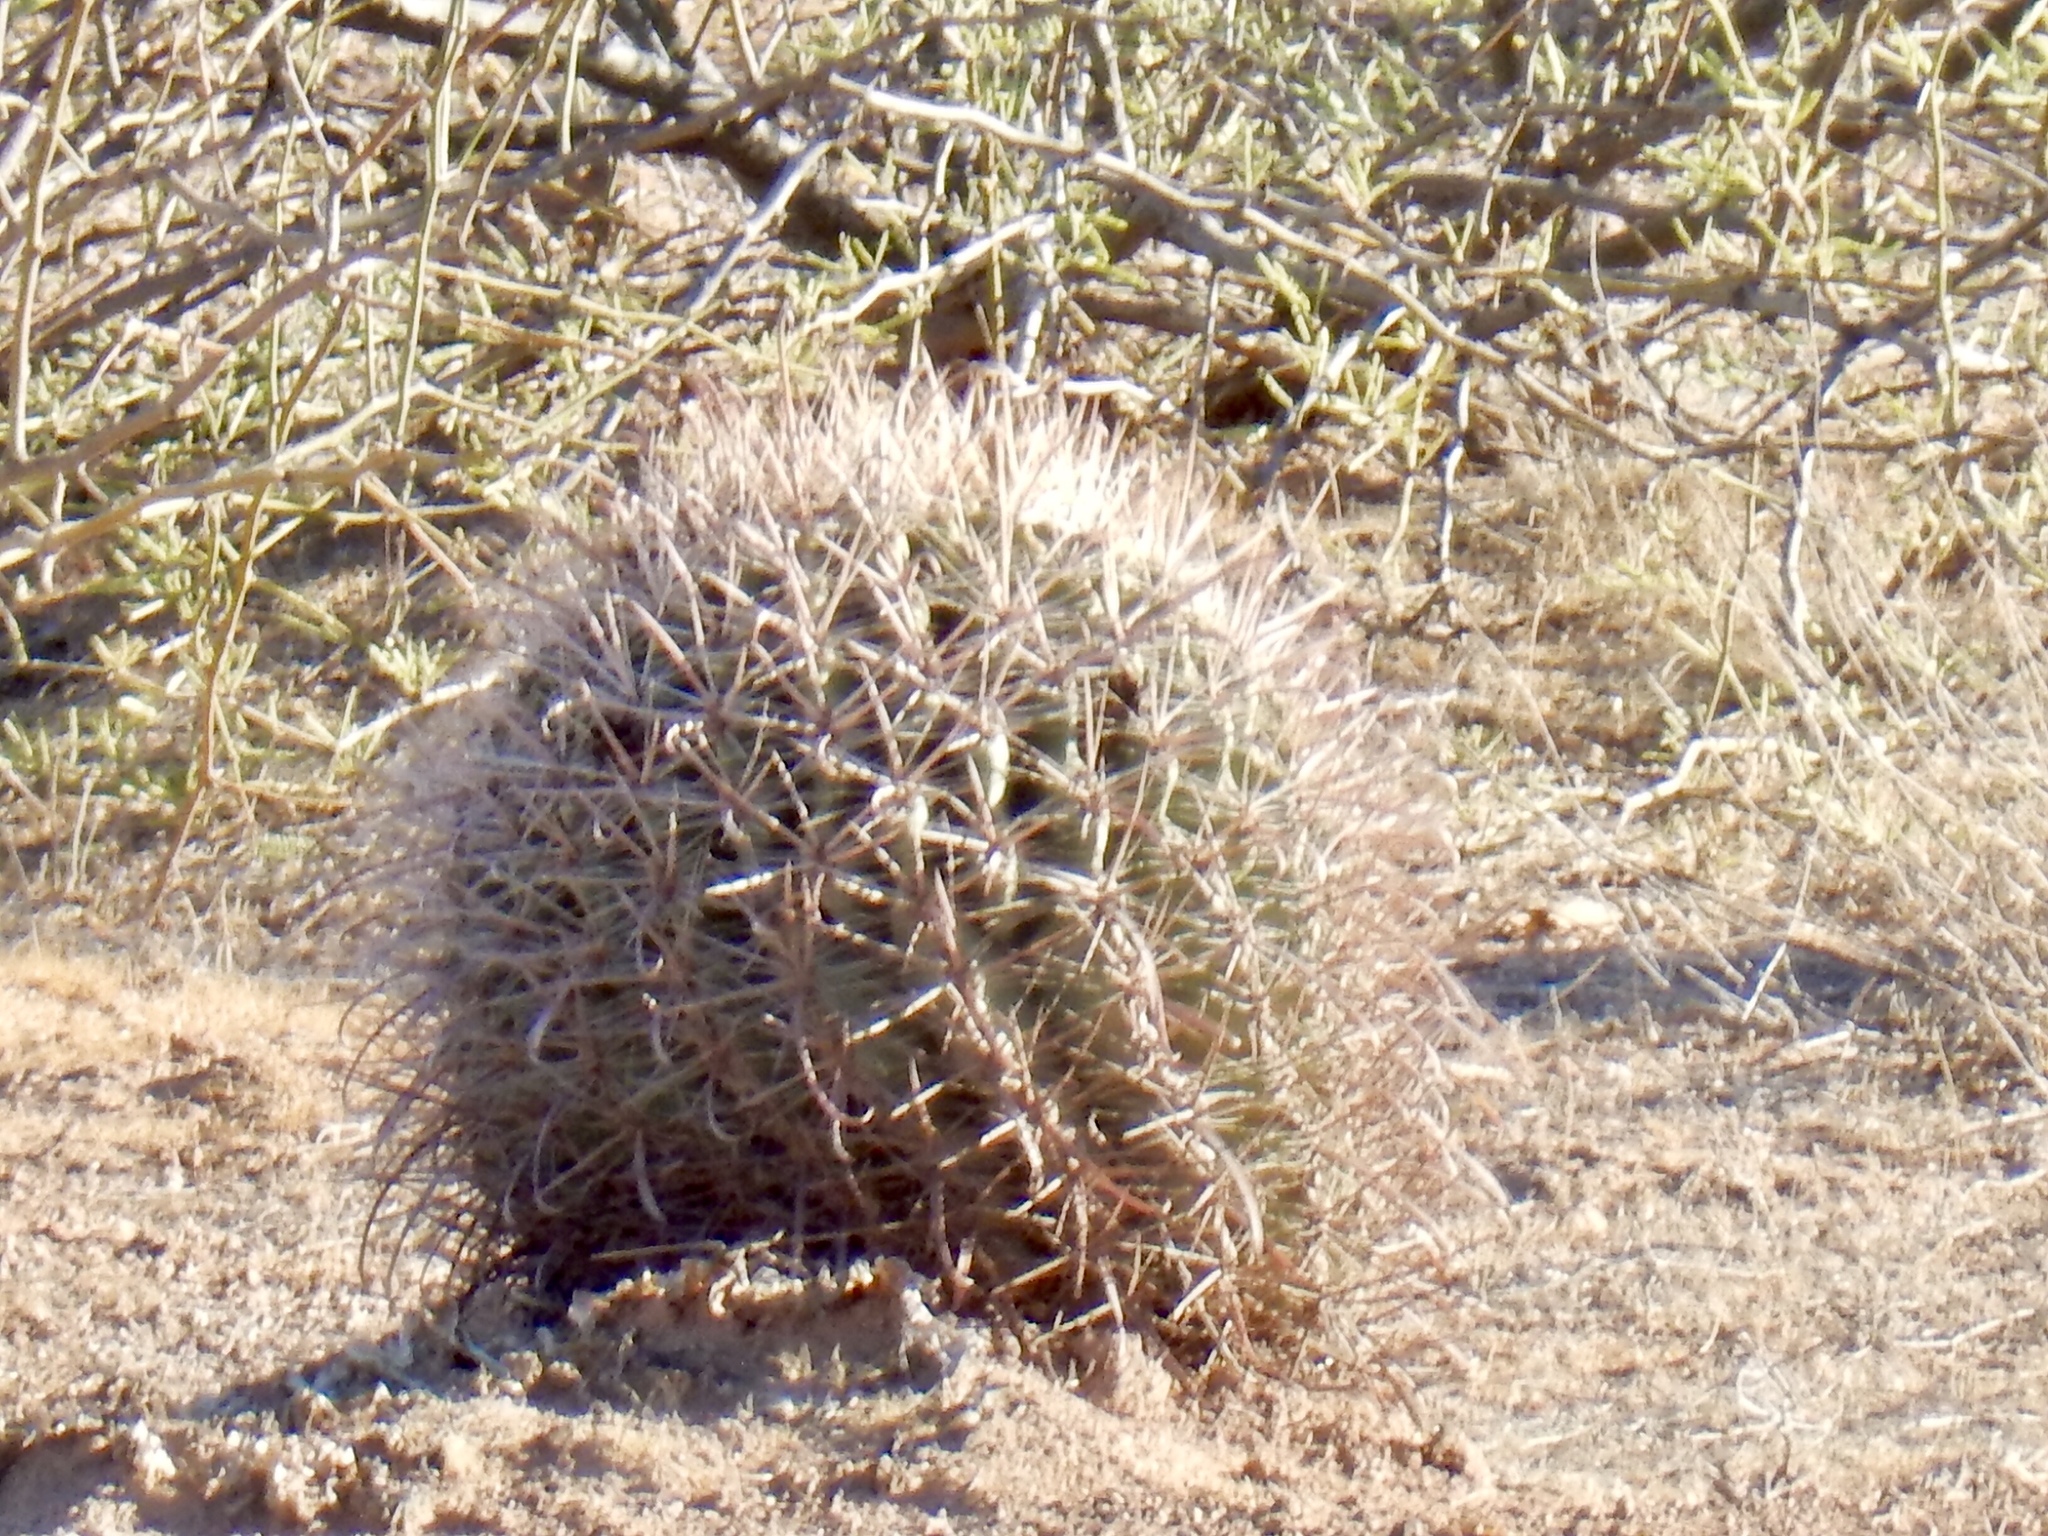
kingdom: Plantae
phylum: Tracheophyta
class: Magnoliopsida
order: Caryophyllales
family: Cactaceae
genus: Ferocactus
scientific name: Ferocactus wislizeni
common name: Candy barrel cactus
